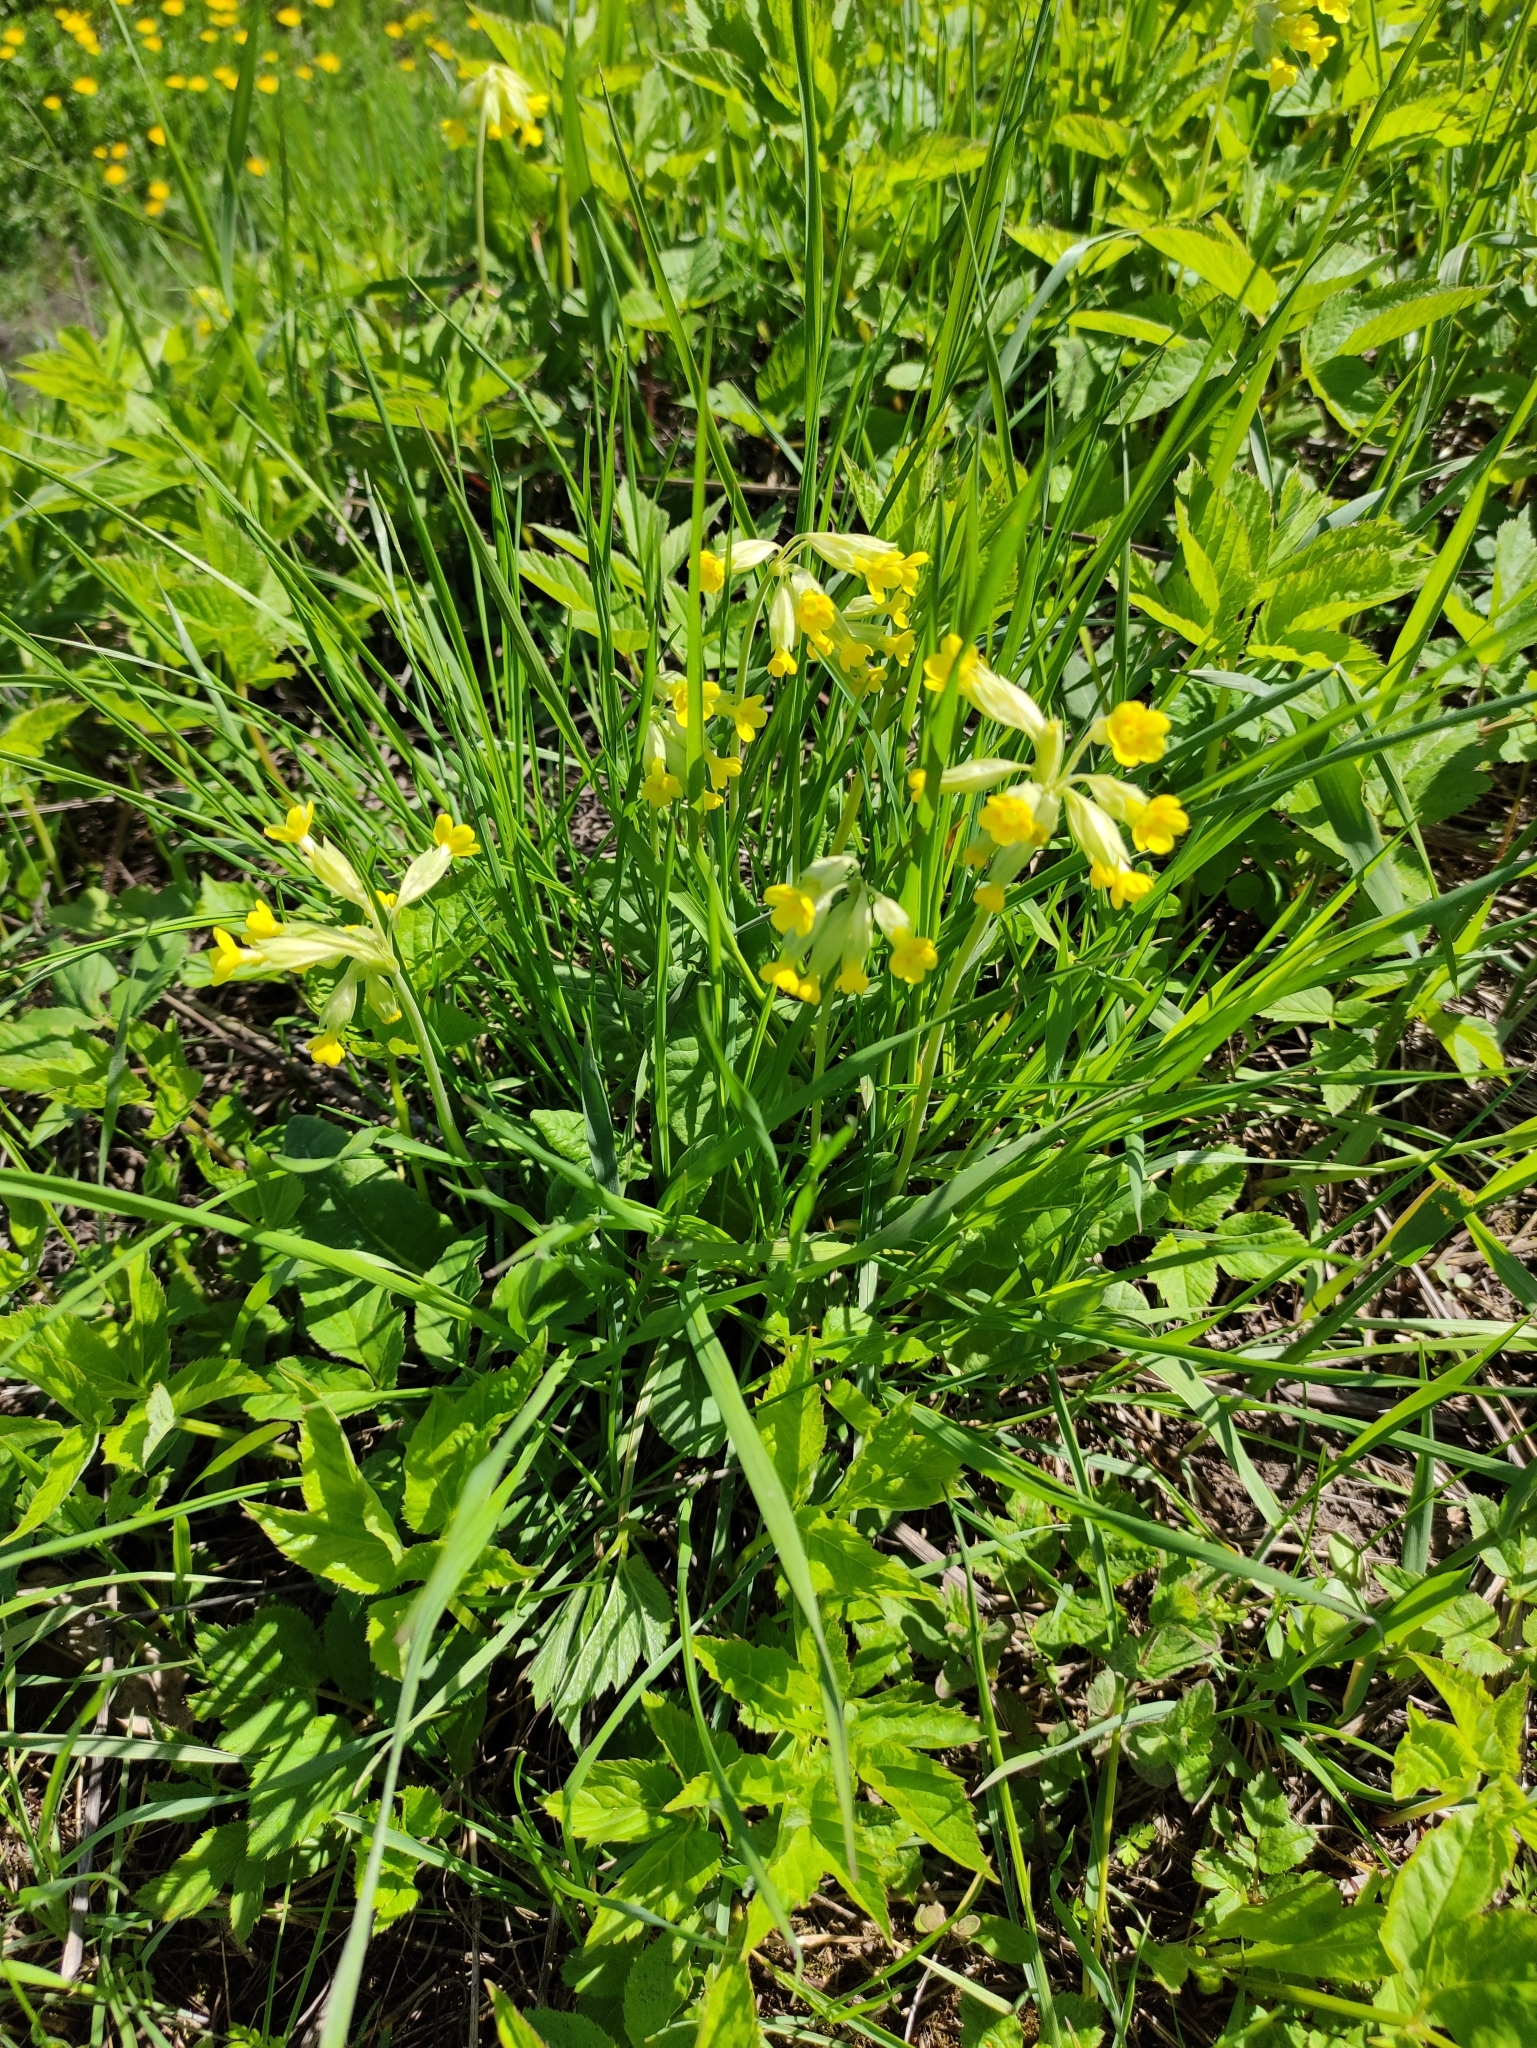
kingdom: Plantae
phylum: Tracheophyta
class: Magnoliopsida
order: Ericales
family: Primulaceae
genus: Primula
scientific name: Primula veris
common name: Cowslip
